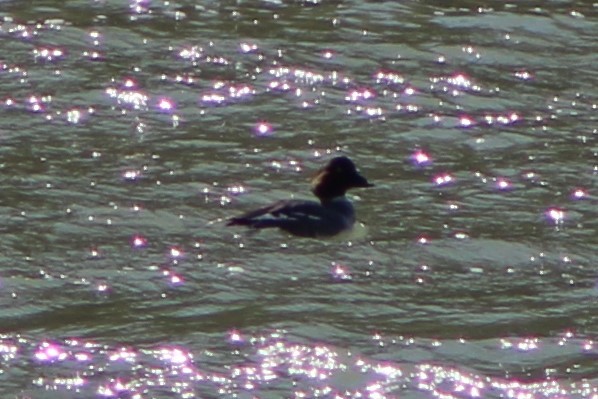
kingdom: Animalia
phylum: Chordata
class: Aves
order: Anseriformes
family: Anatidae
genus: Bucephala
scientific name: Bucephala clangula
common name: Common goldeneye
